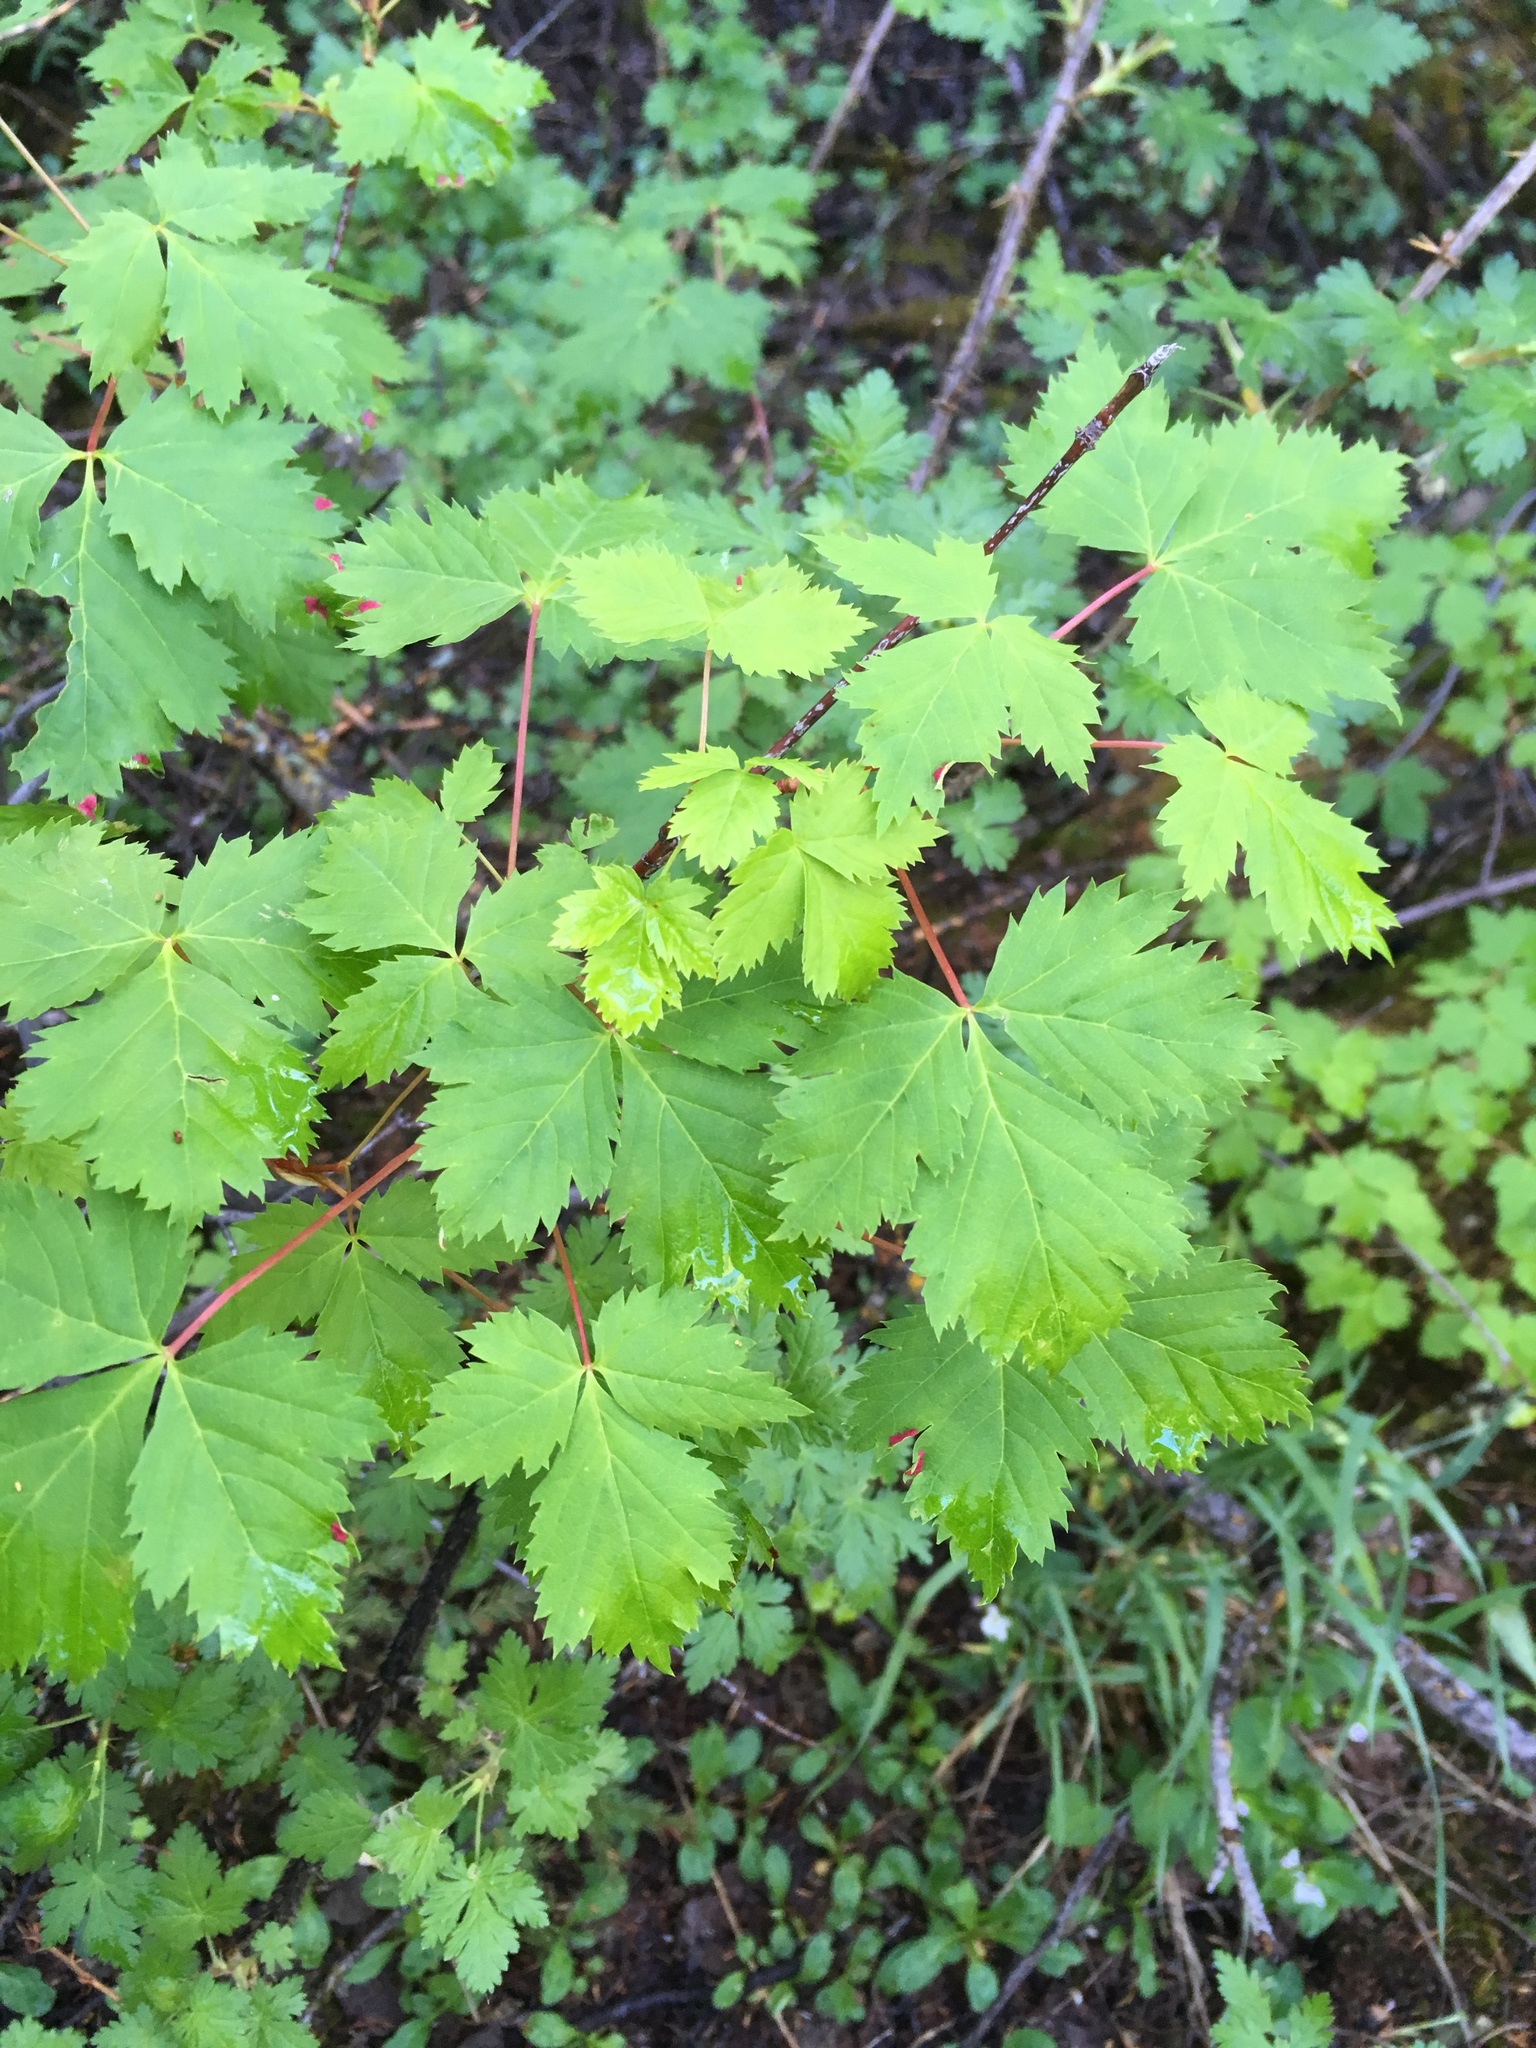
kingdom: Plantae
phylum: Tracheophyta
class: Magnoliopsida
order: Sapindales
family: Sapindaceae
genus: Acer
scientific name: Acer glabrum
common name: Rocky mountain maple
